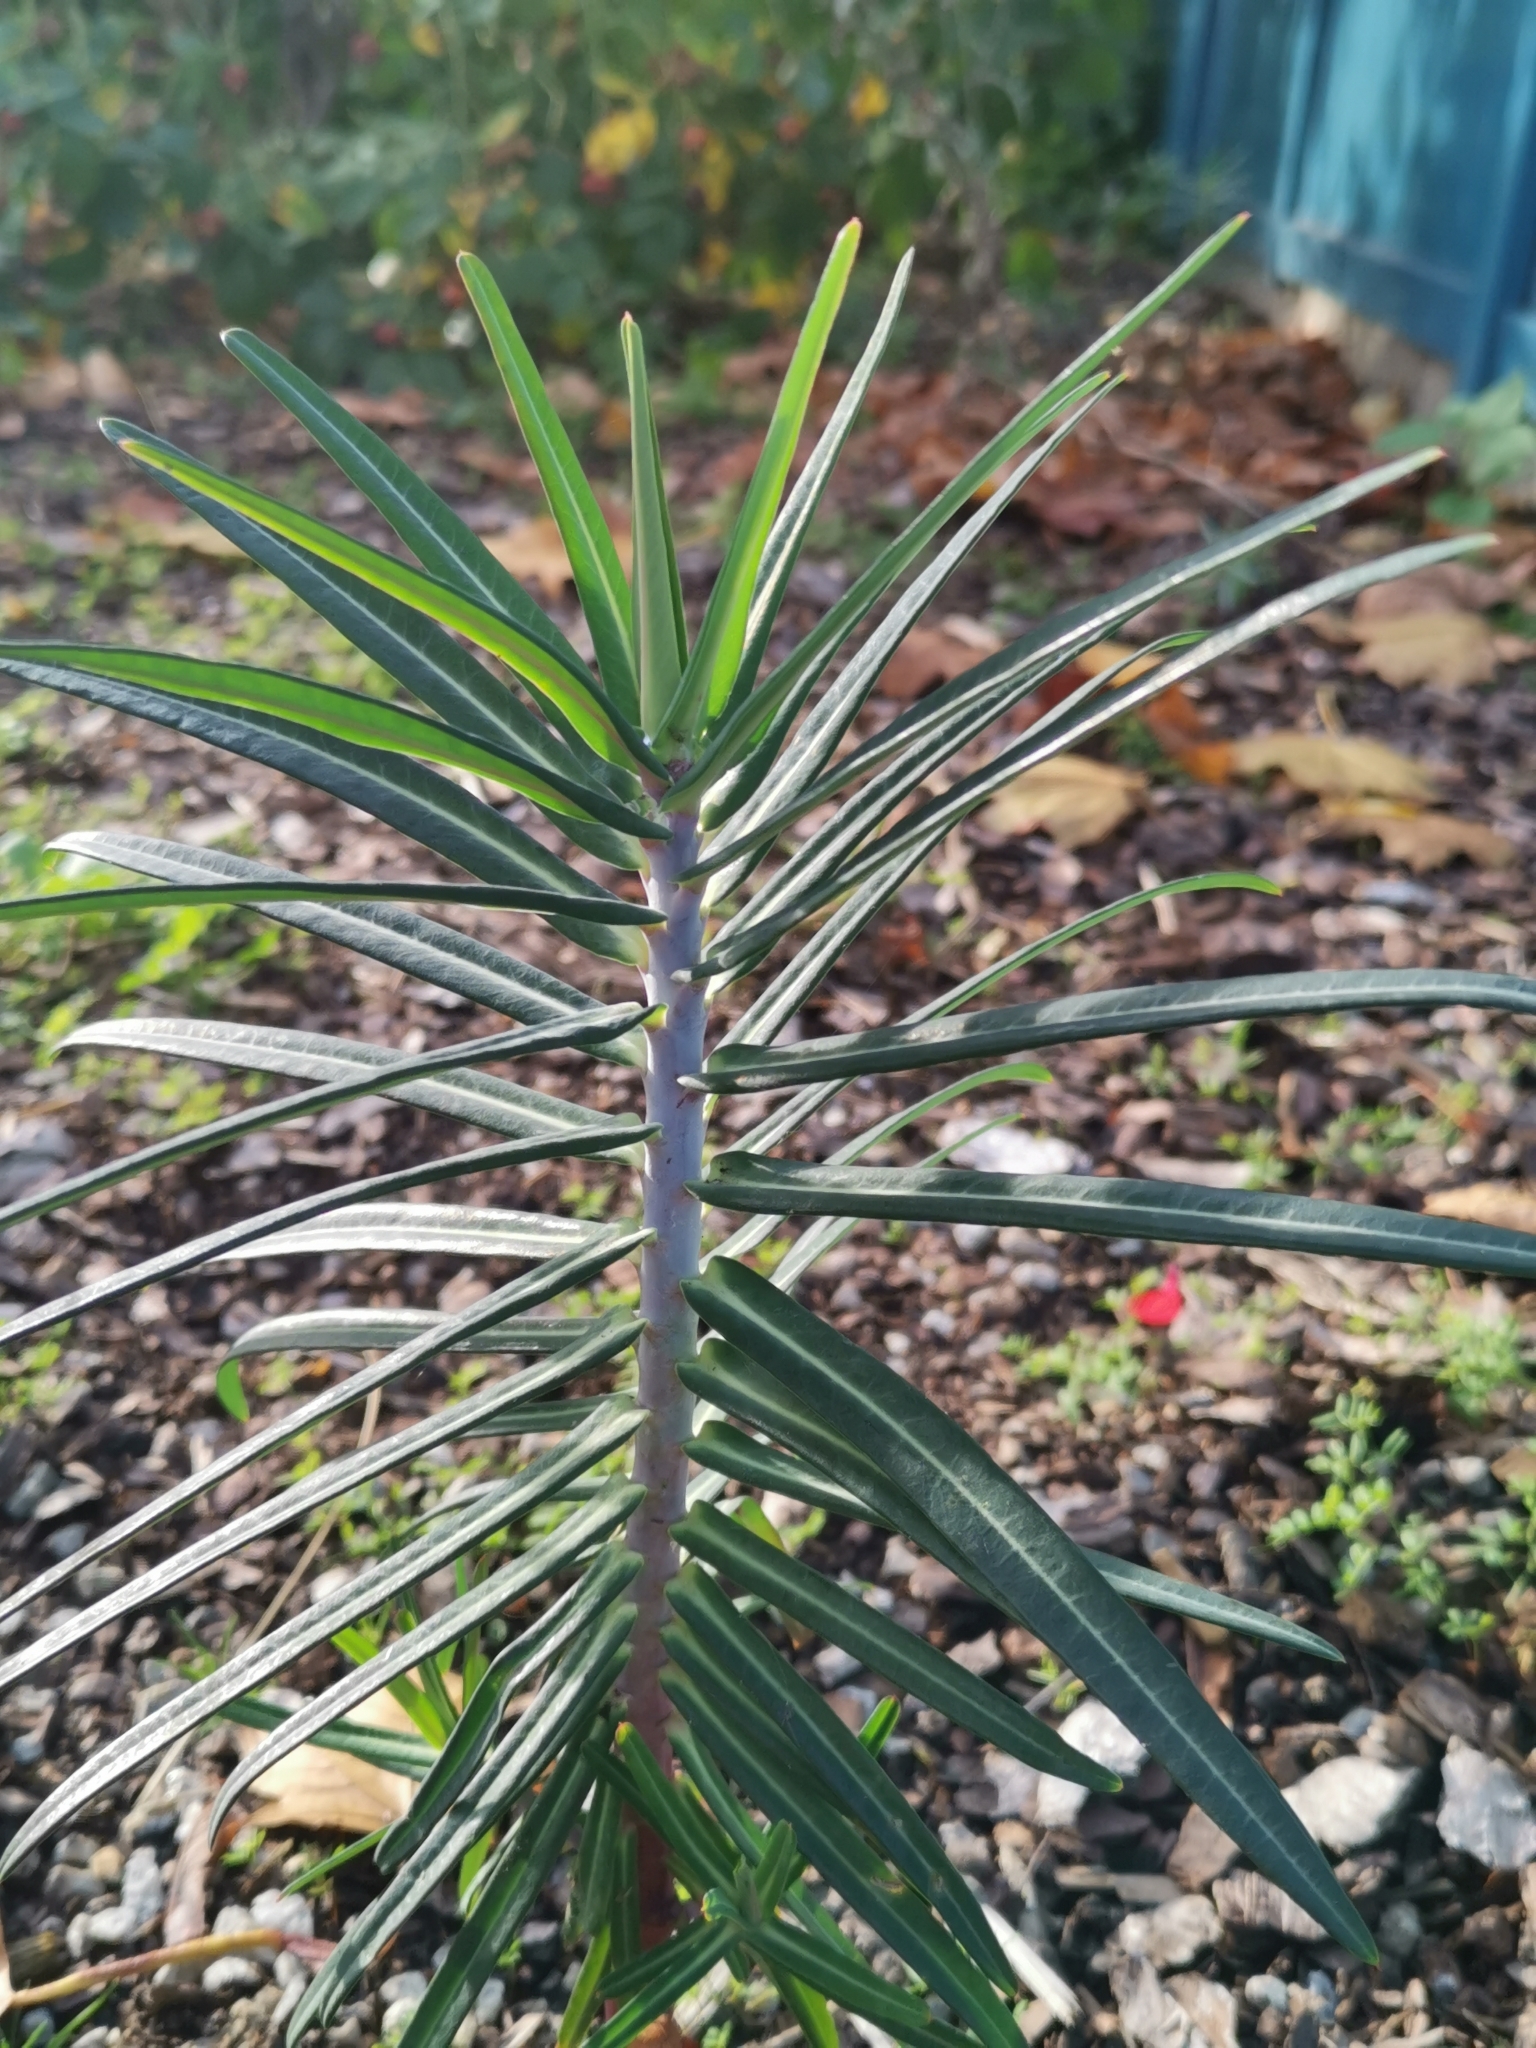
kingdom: Plantae
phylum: Tracheophyta
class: Magnoliopsida
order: Malpighiales
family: Euphorbiaceae
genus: Euphorbia
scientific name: Euphorbia lathyris
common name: Caper spurge
